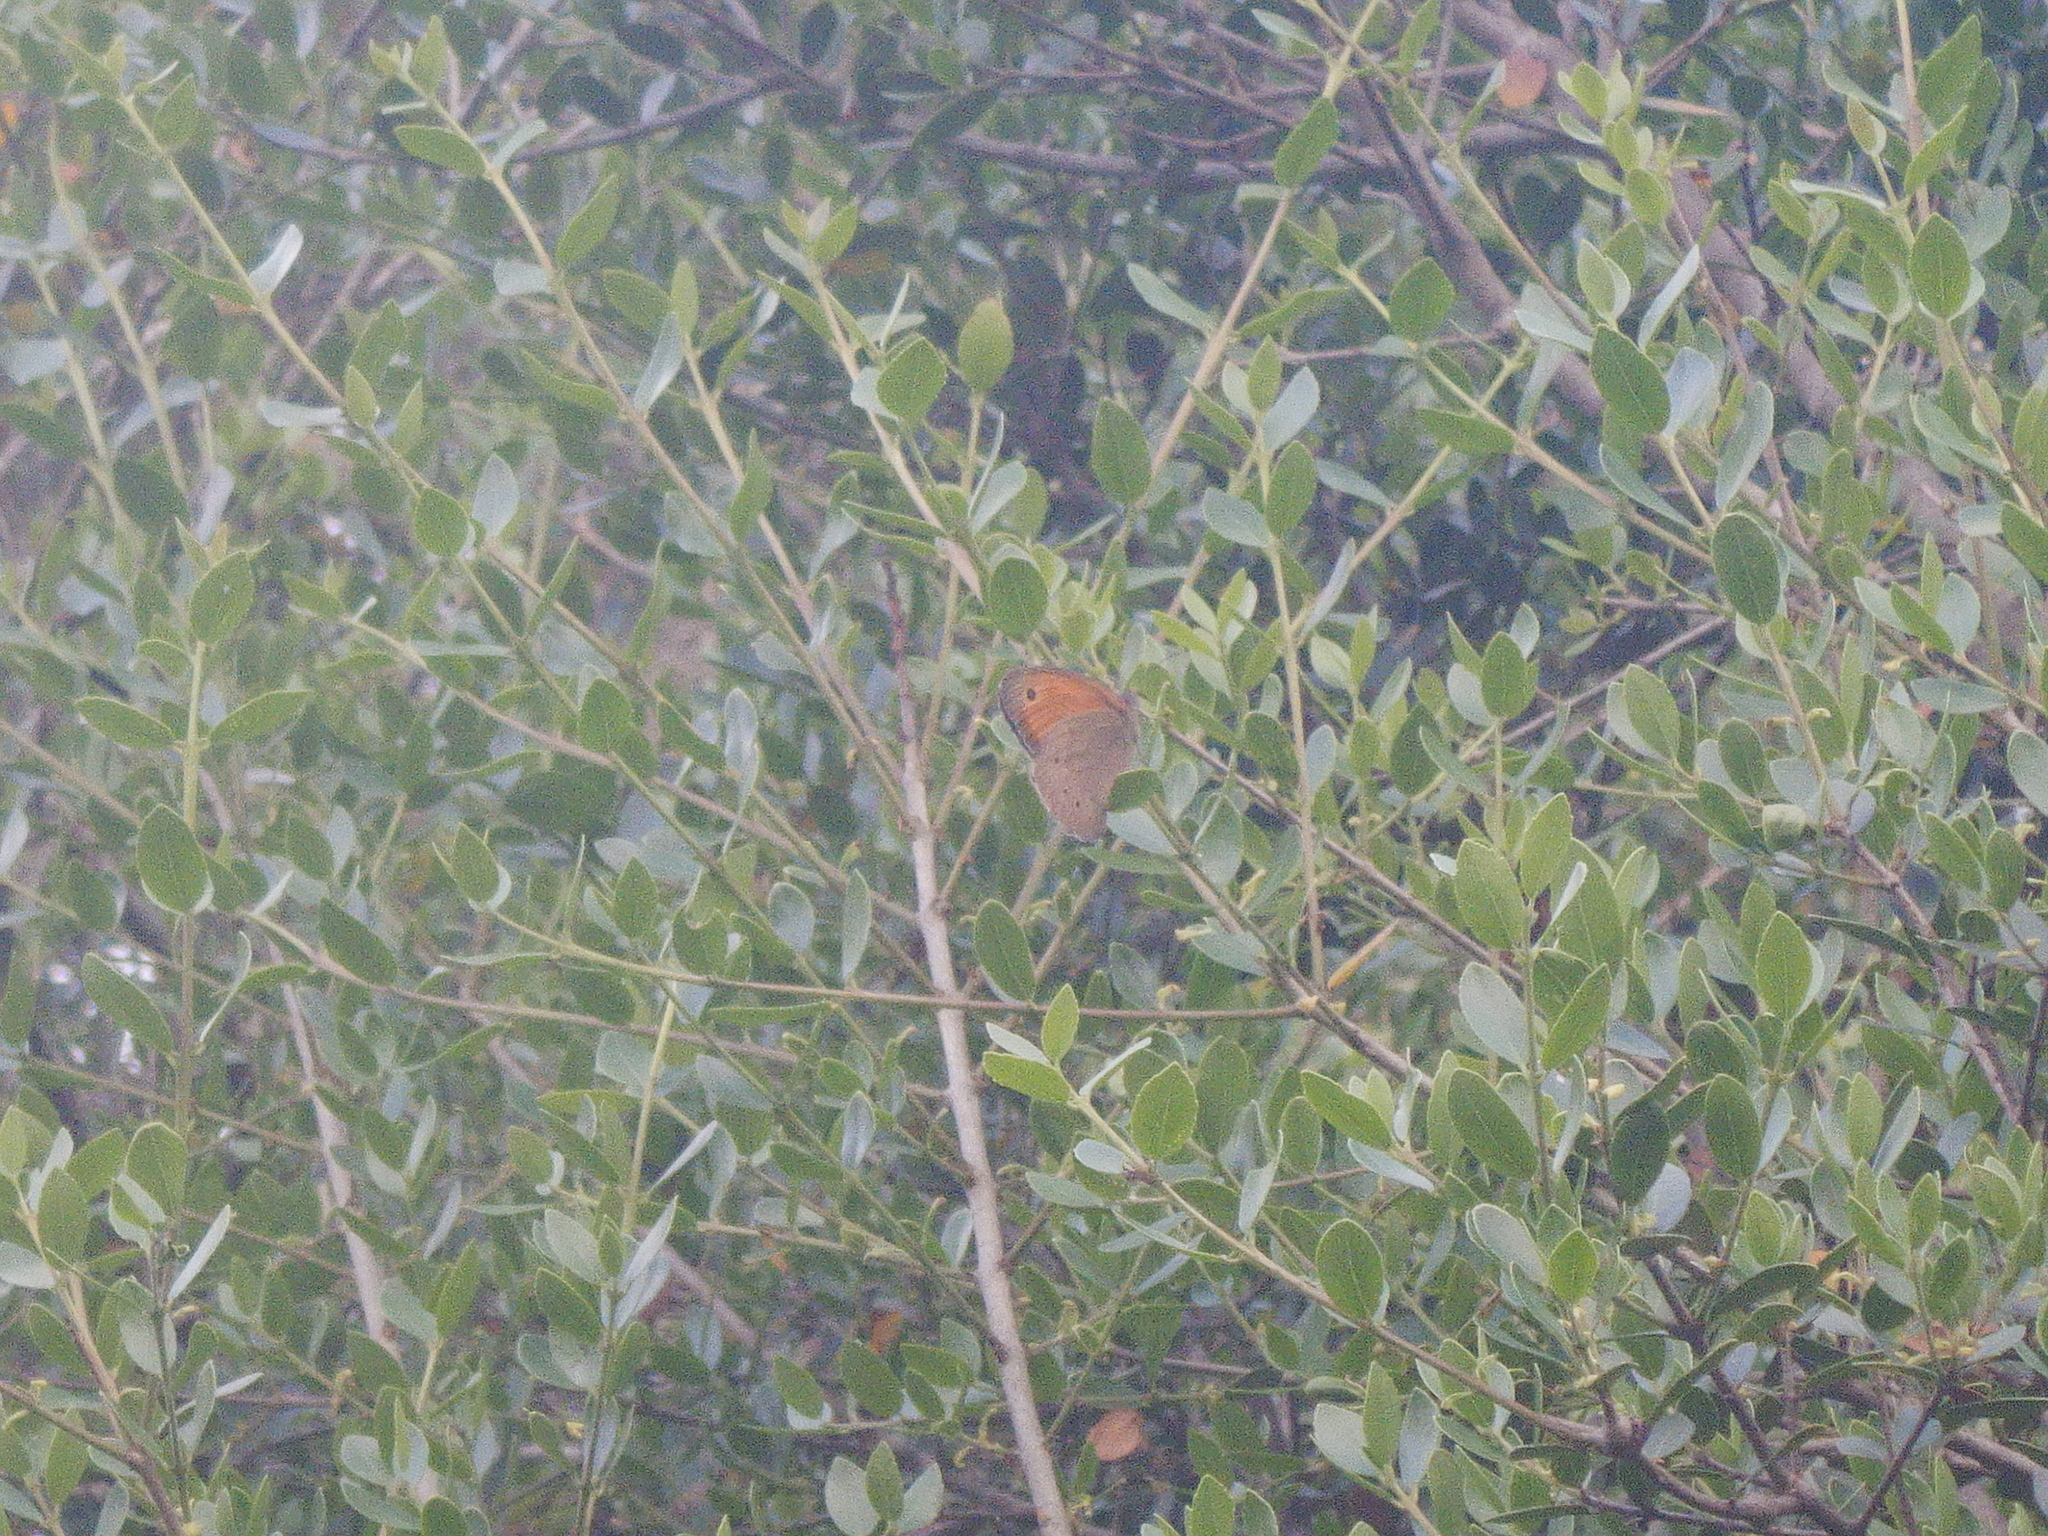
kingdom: Animalia
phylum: Arthropoda
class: Insecta
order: Lepidoptera
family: Nymphalidae
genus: Maniola
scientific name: Maniola jurtina
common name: Meadow brown
